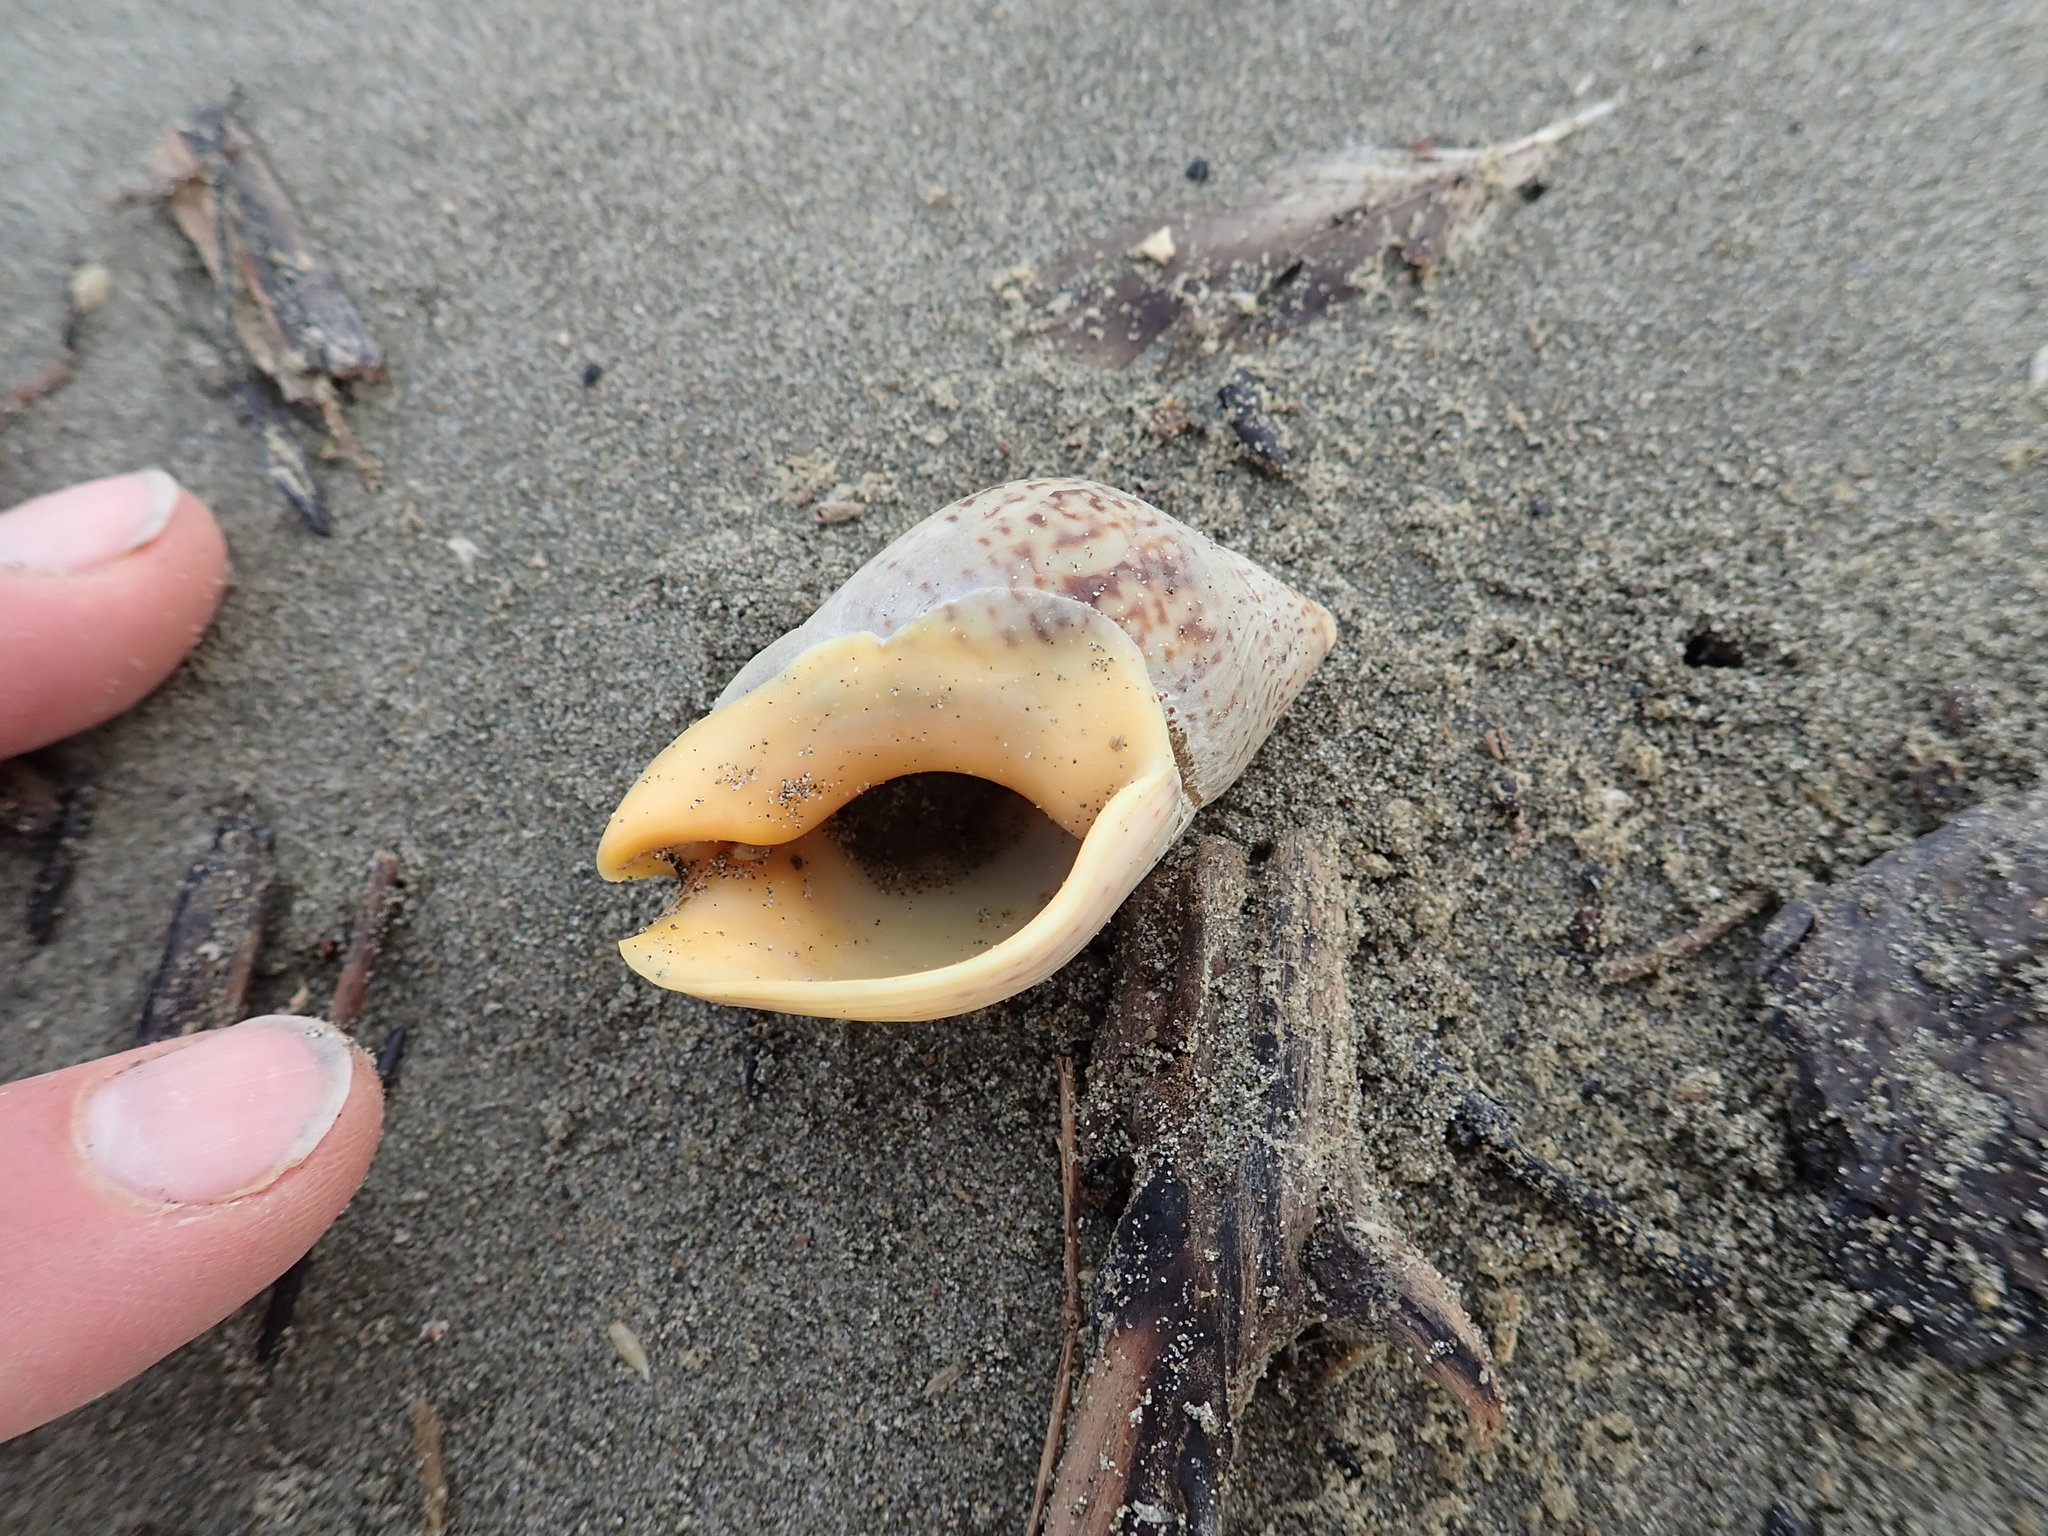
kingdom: Animalia
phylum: Mollusca
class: Gastropoda
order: Neogastropoda
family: Cominellidae
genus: Cominella
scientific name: Cominella adspersa
